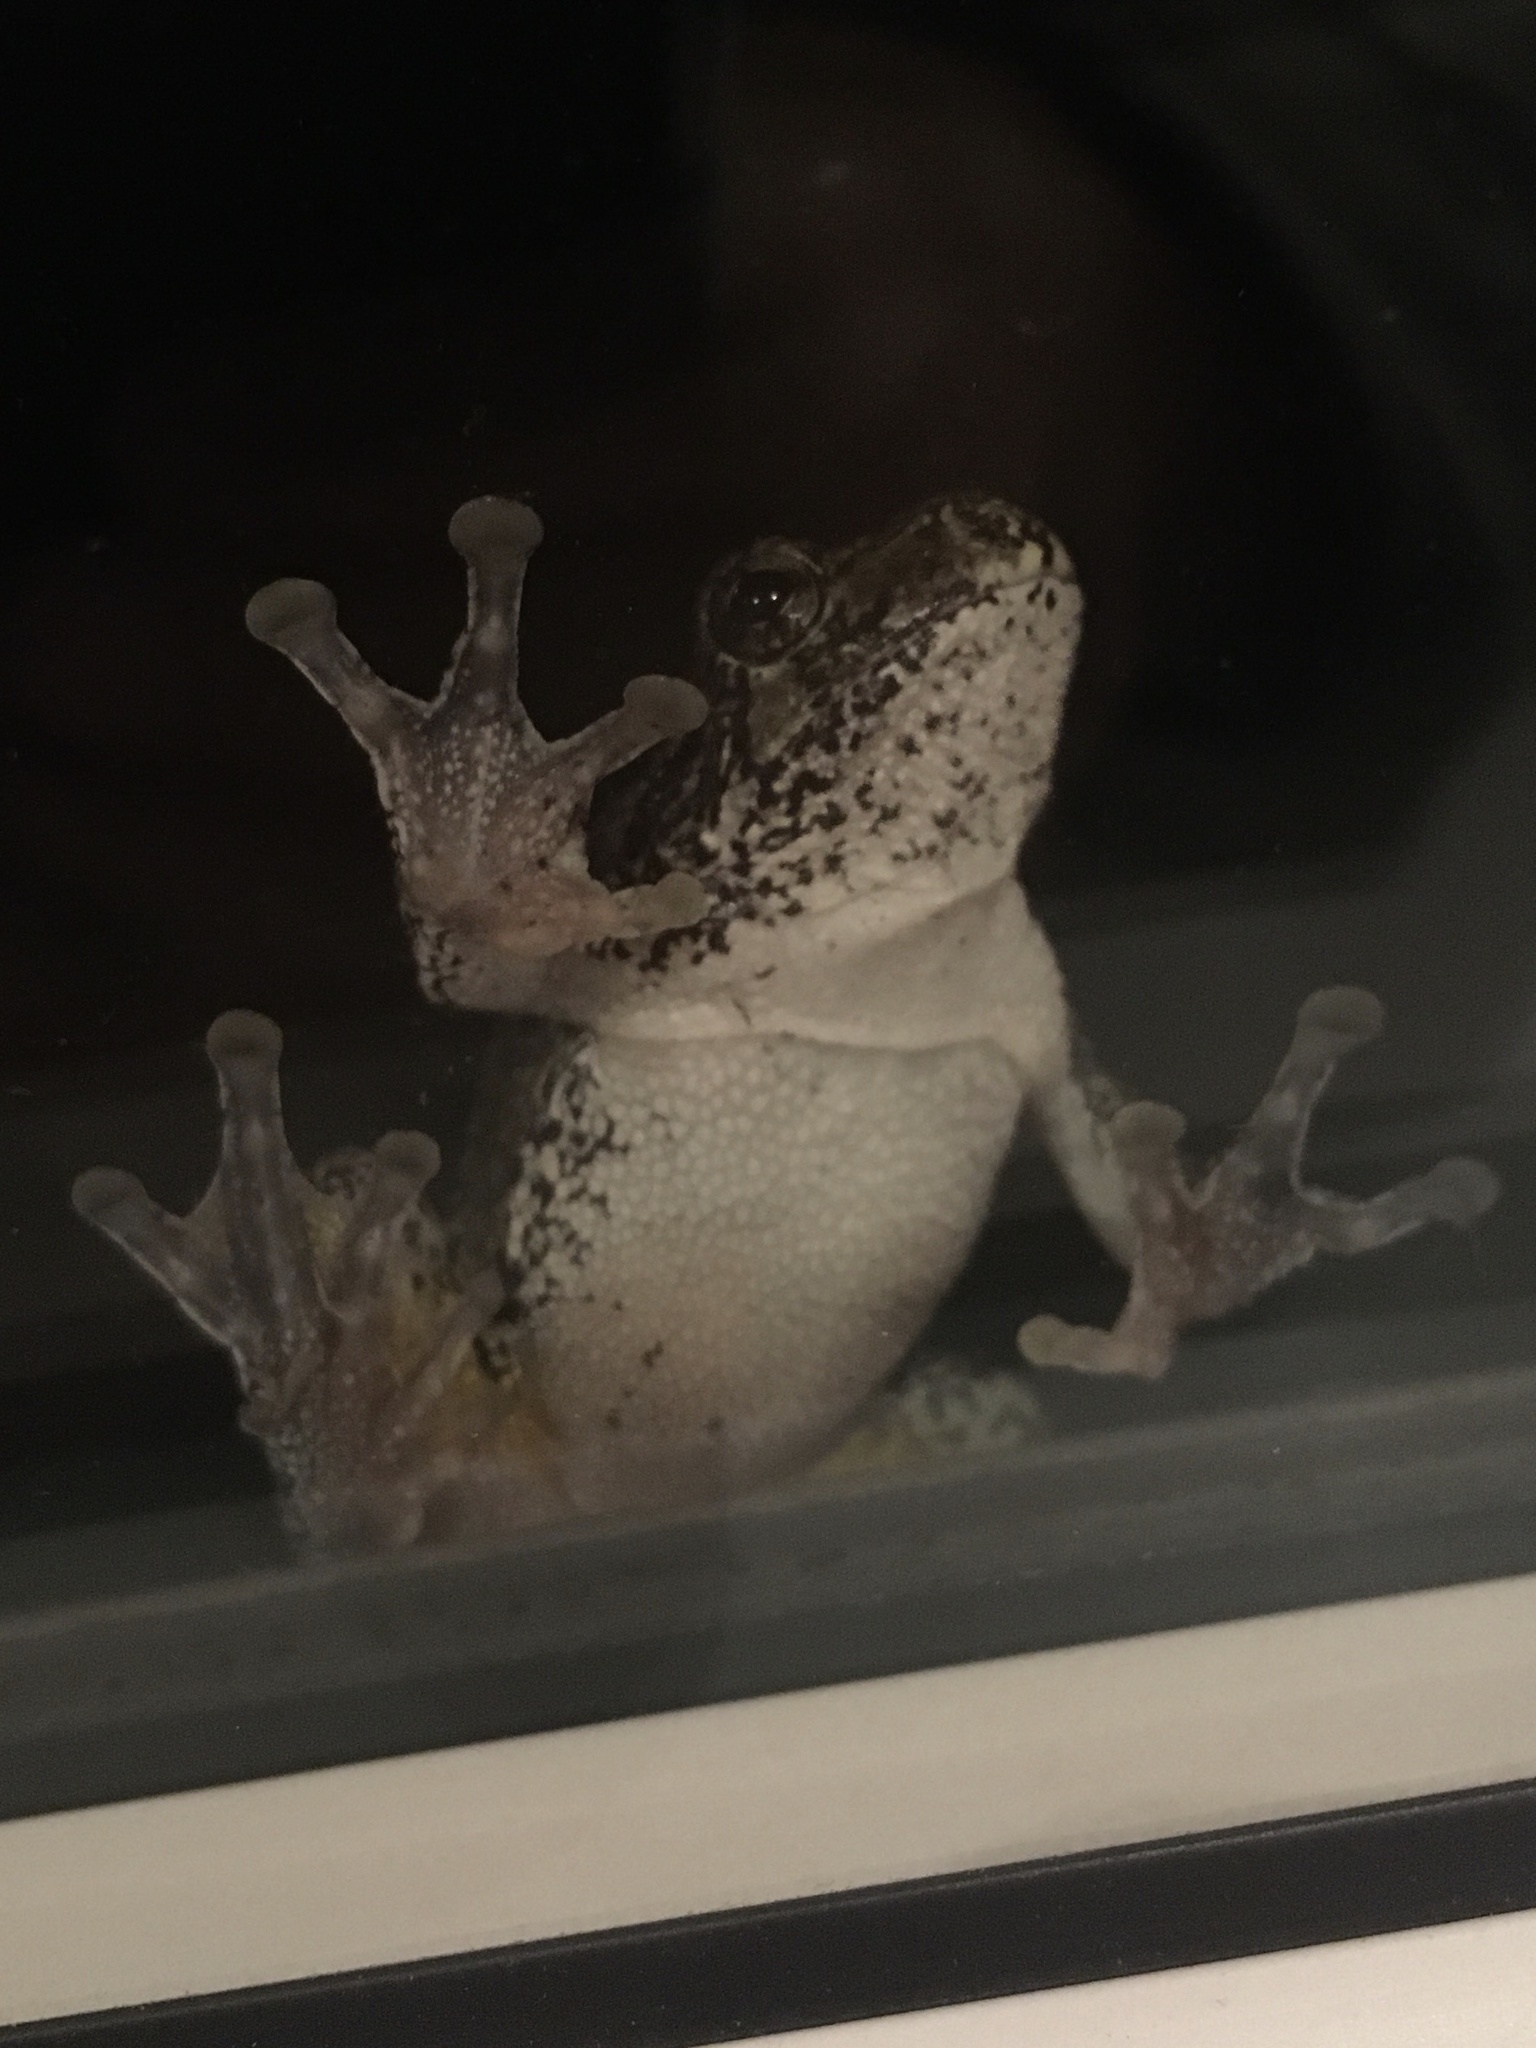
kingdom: Animalia
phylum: Chordata
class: Amphibia
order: Anura
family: Hylidae
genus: Dryophytes
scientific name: Dryophytes versicolor
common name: Gray treefrog
